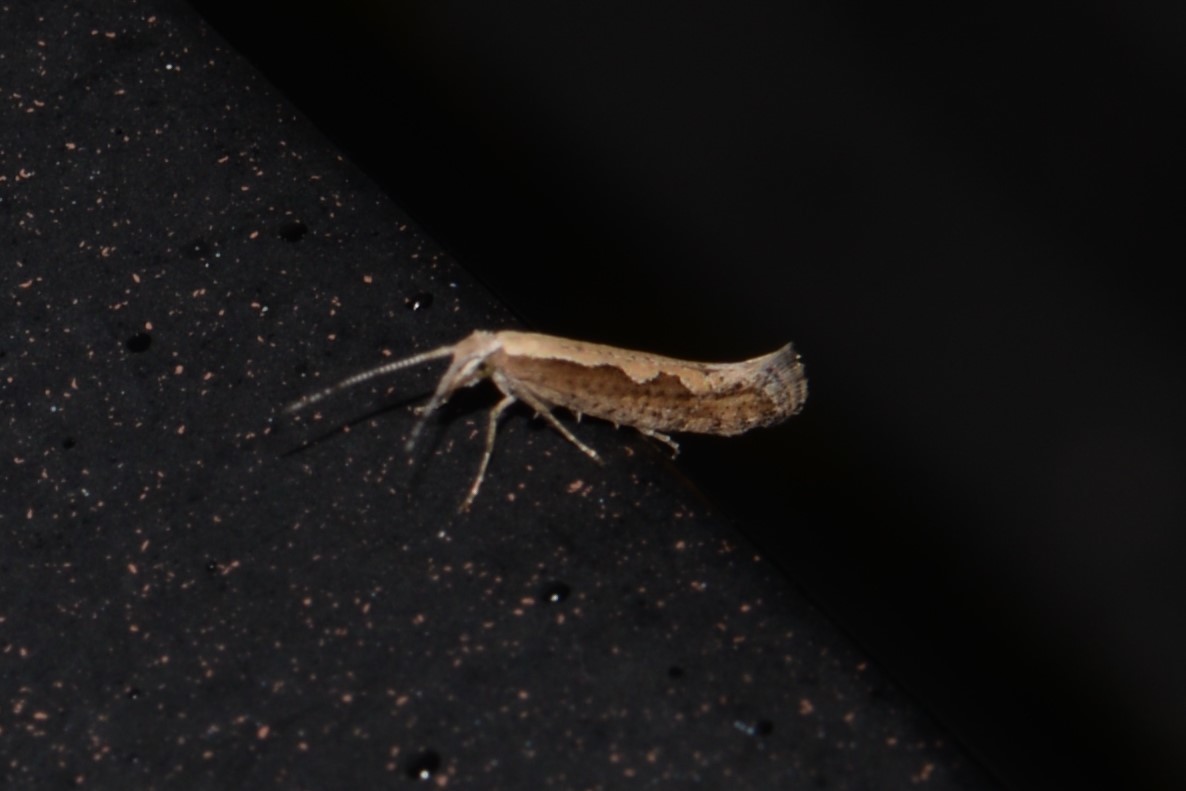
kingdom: Animalia
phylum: Arthropoda
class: Insecta
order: Lepidoptera
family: Plutellidae
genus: Plutella
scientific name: Plutella xylostella
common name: Diamond-back moth
